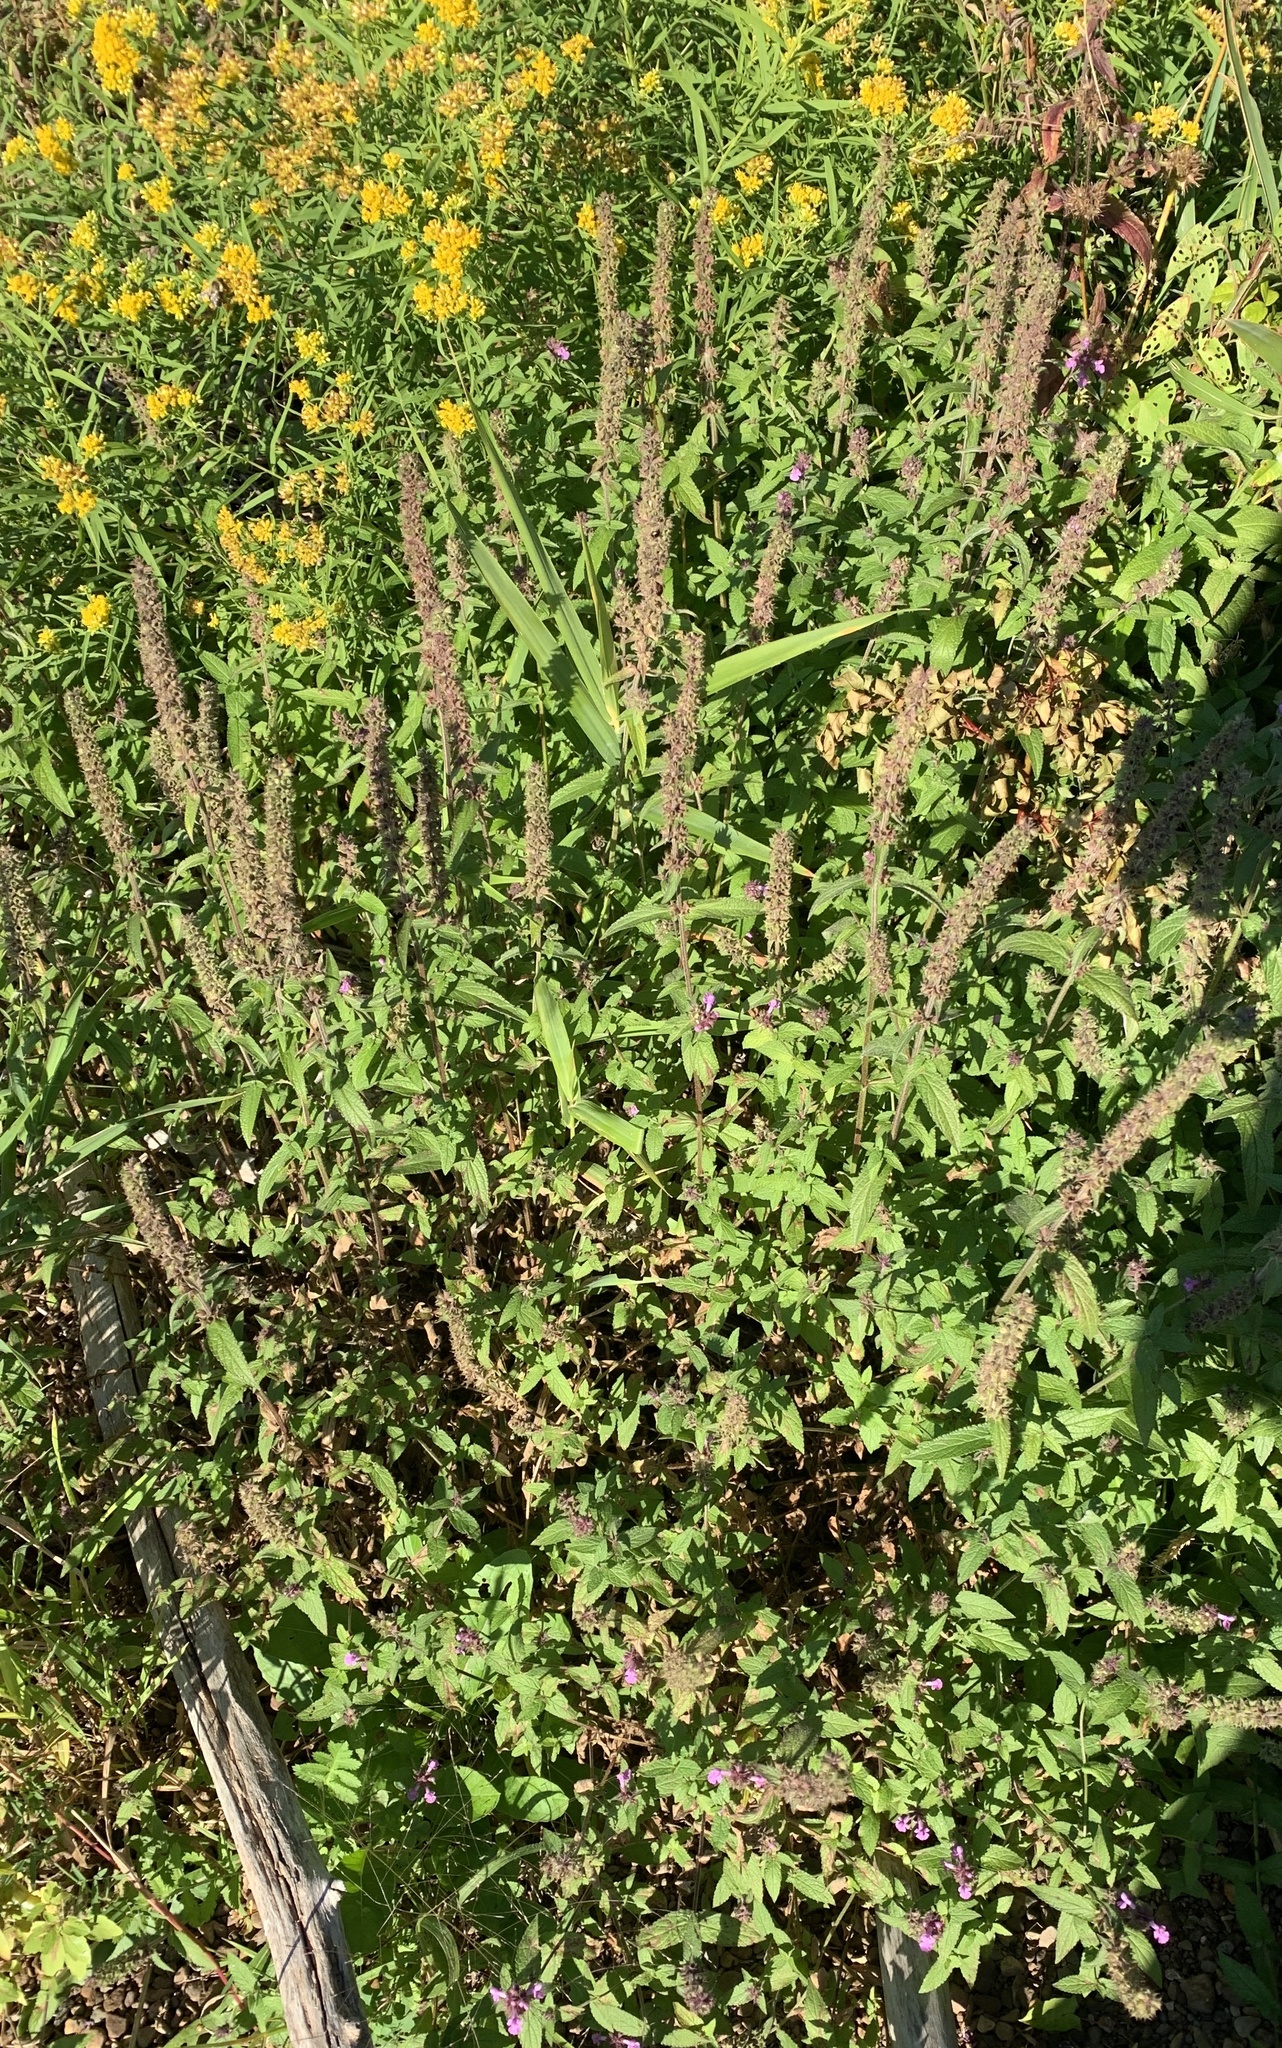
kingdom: Plantae
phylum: Tracheophyta
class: Magnoliopsida
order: Myrtales
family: Lythraceae
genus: Lythrum
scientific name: Lythrum salicaria
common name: Purple loosestrife
